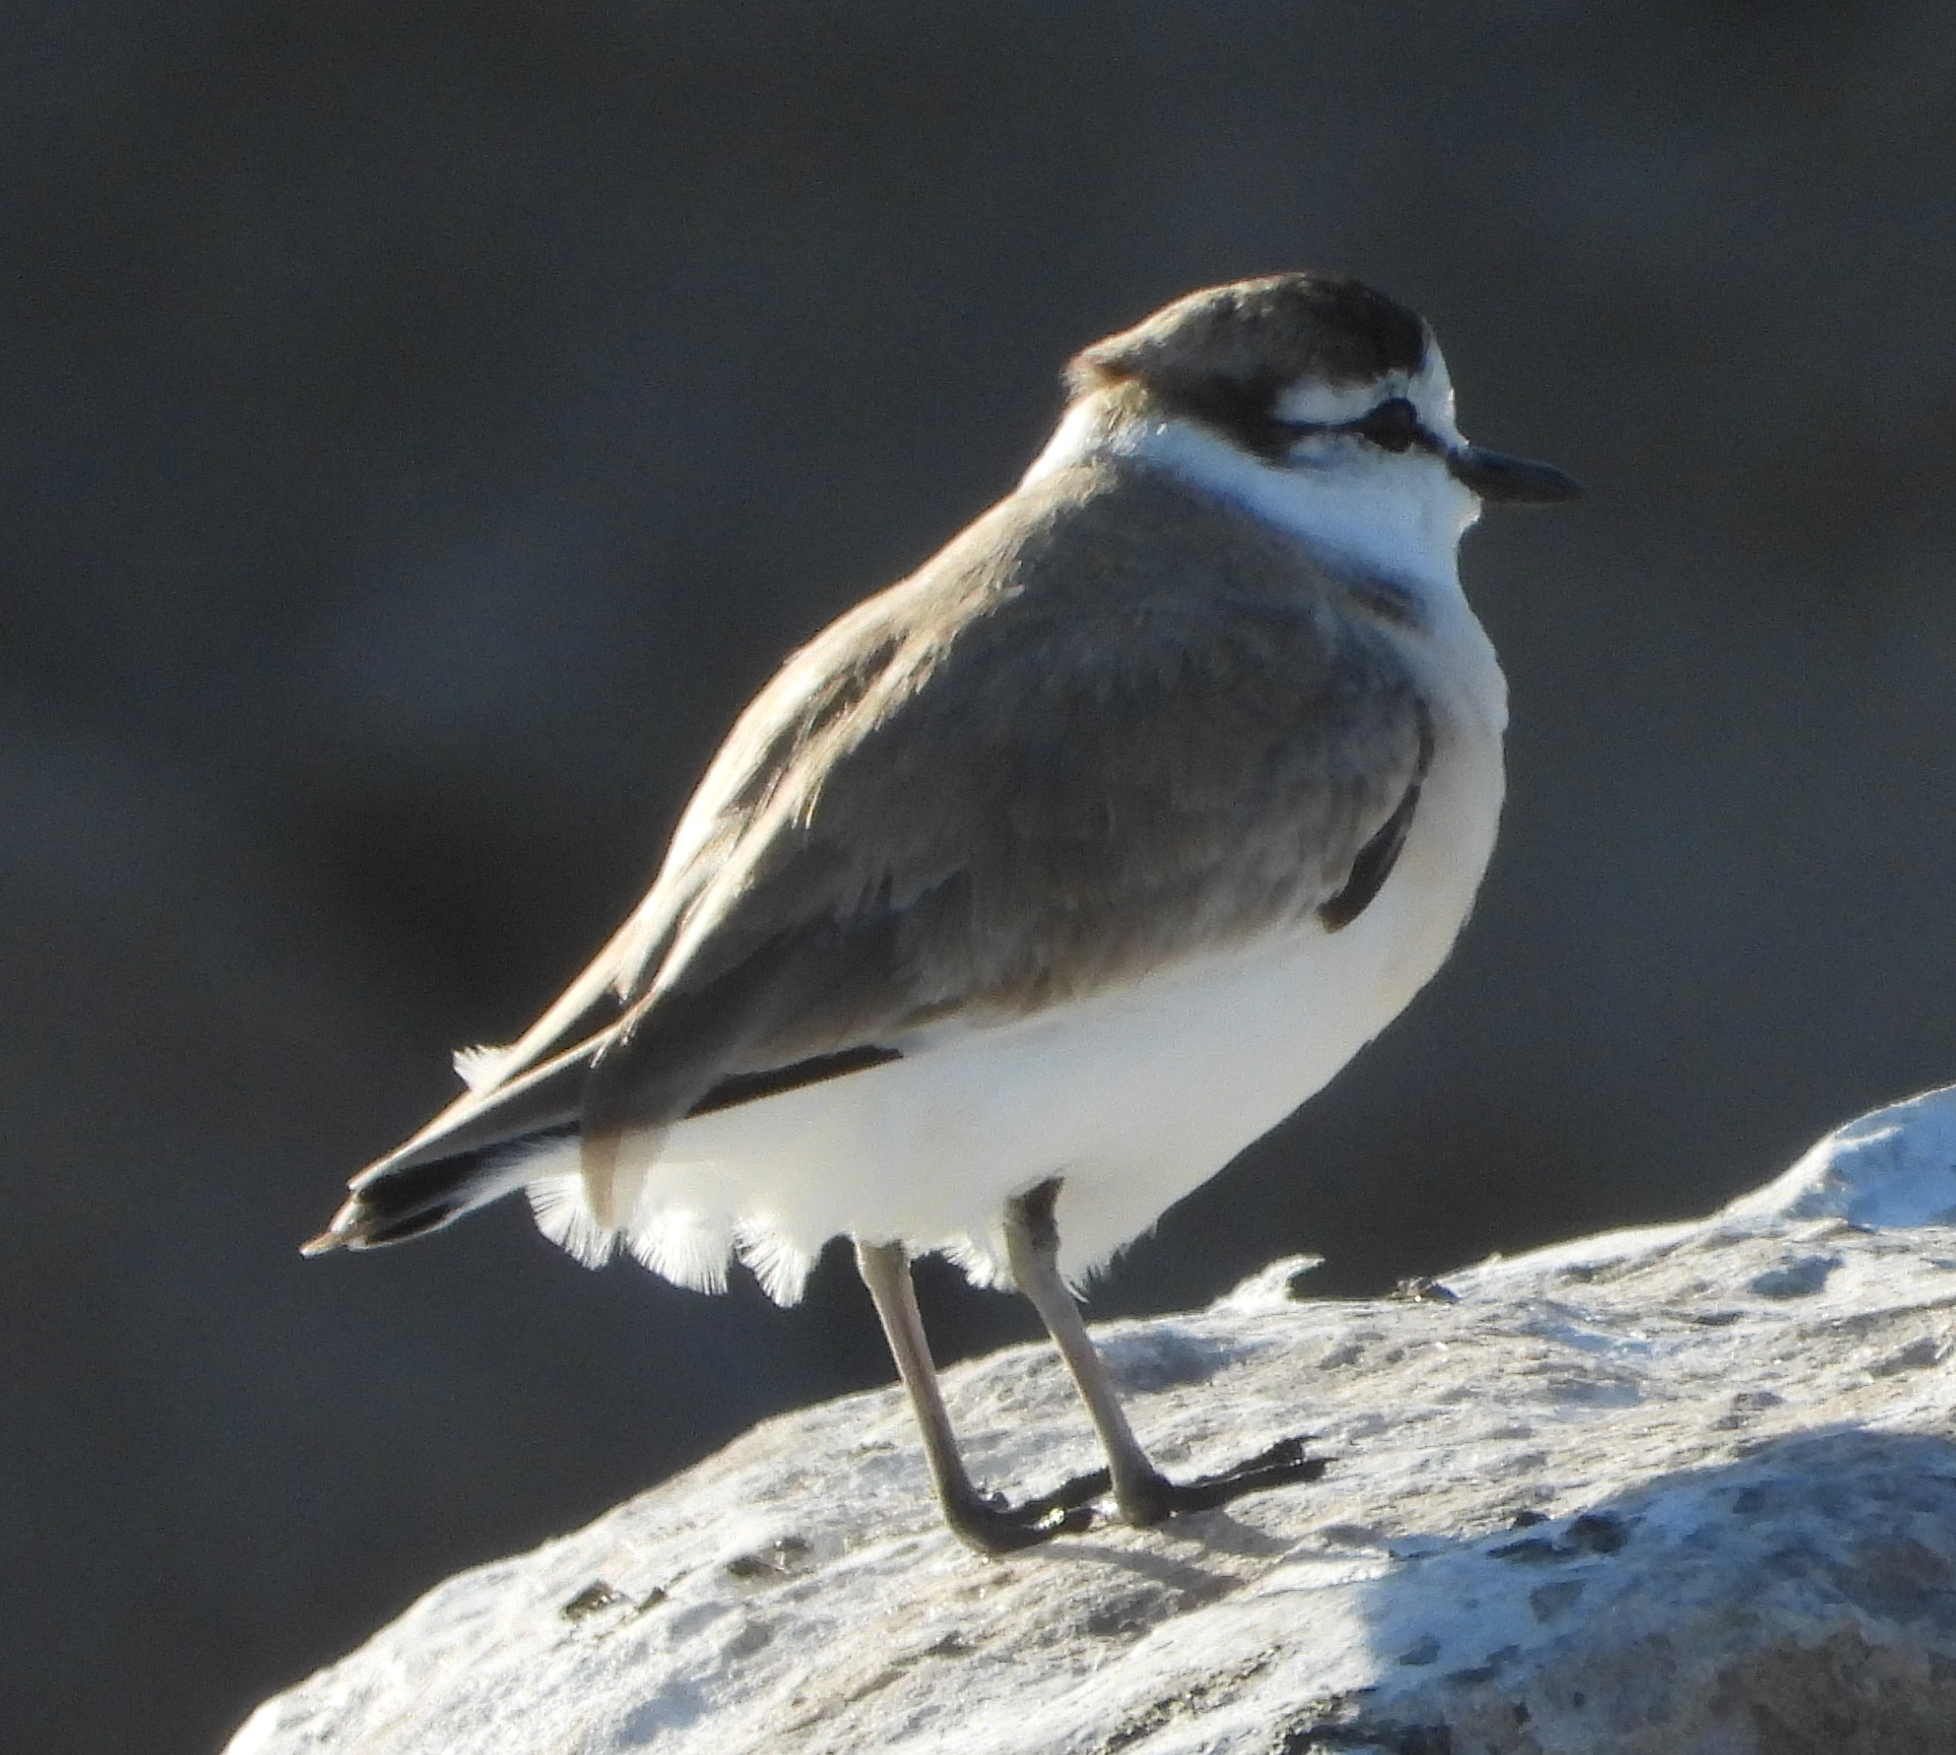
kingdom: Animalia
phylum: Chordata
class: Aves
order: Charadriiformes
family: Charadriidae
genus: Anarhynchus
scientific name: Anarhynchus
